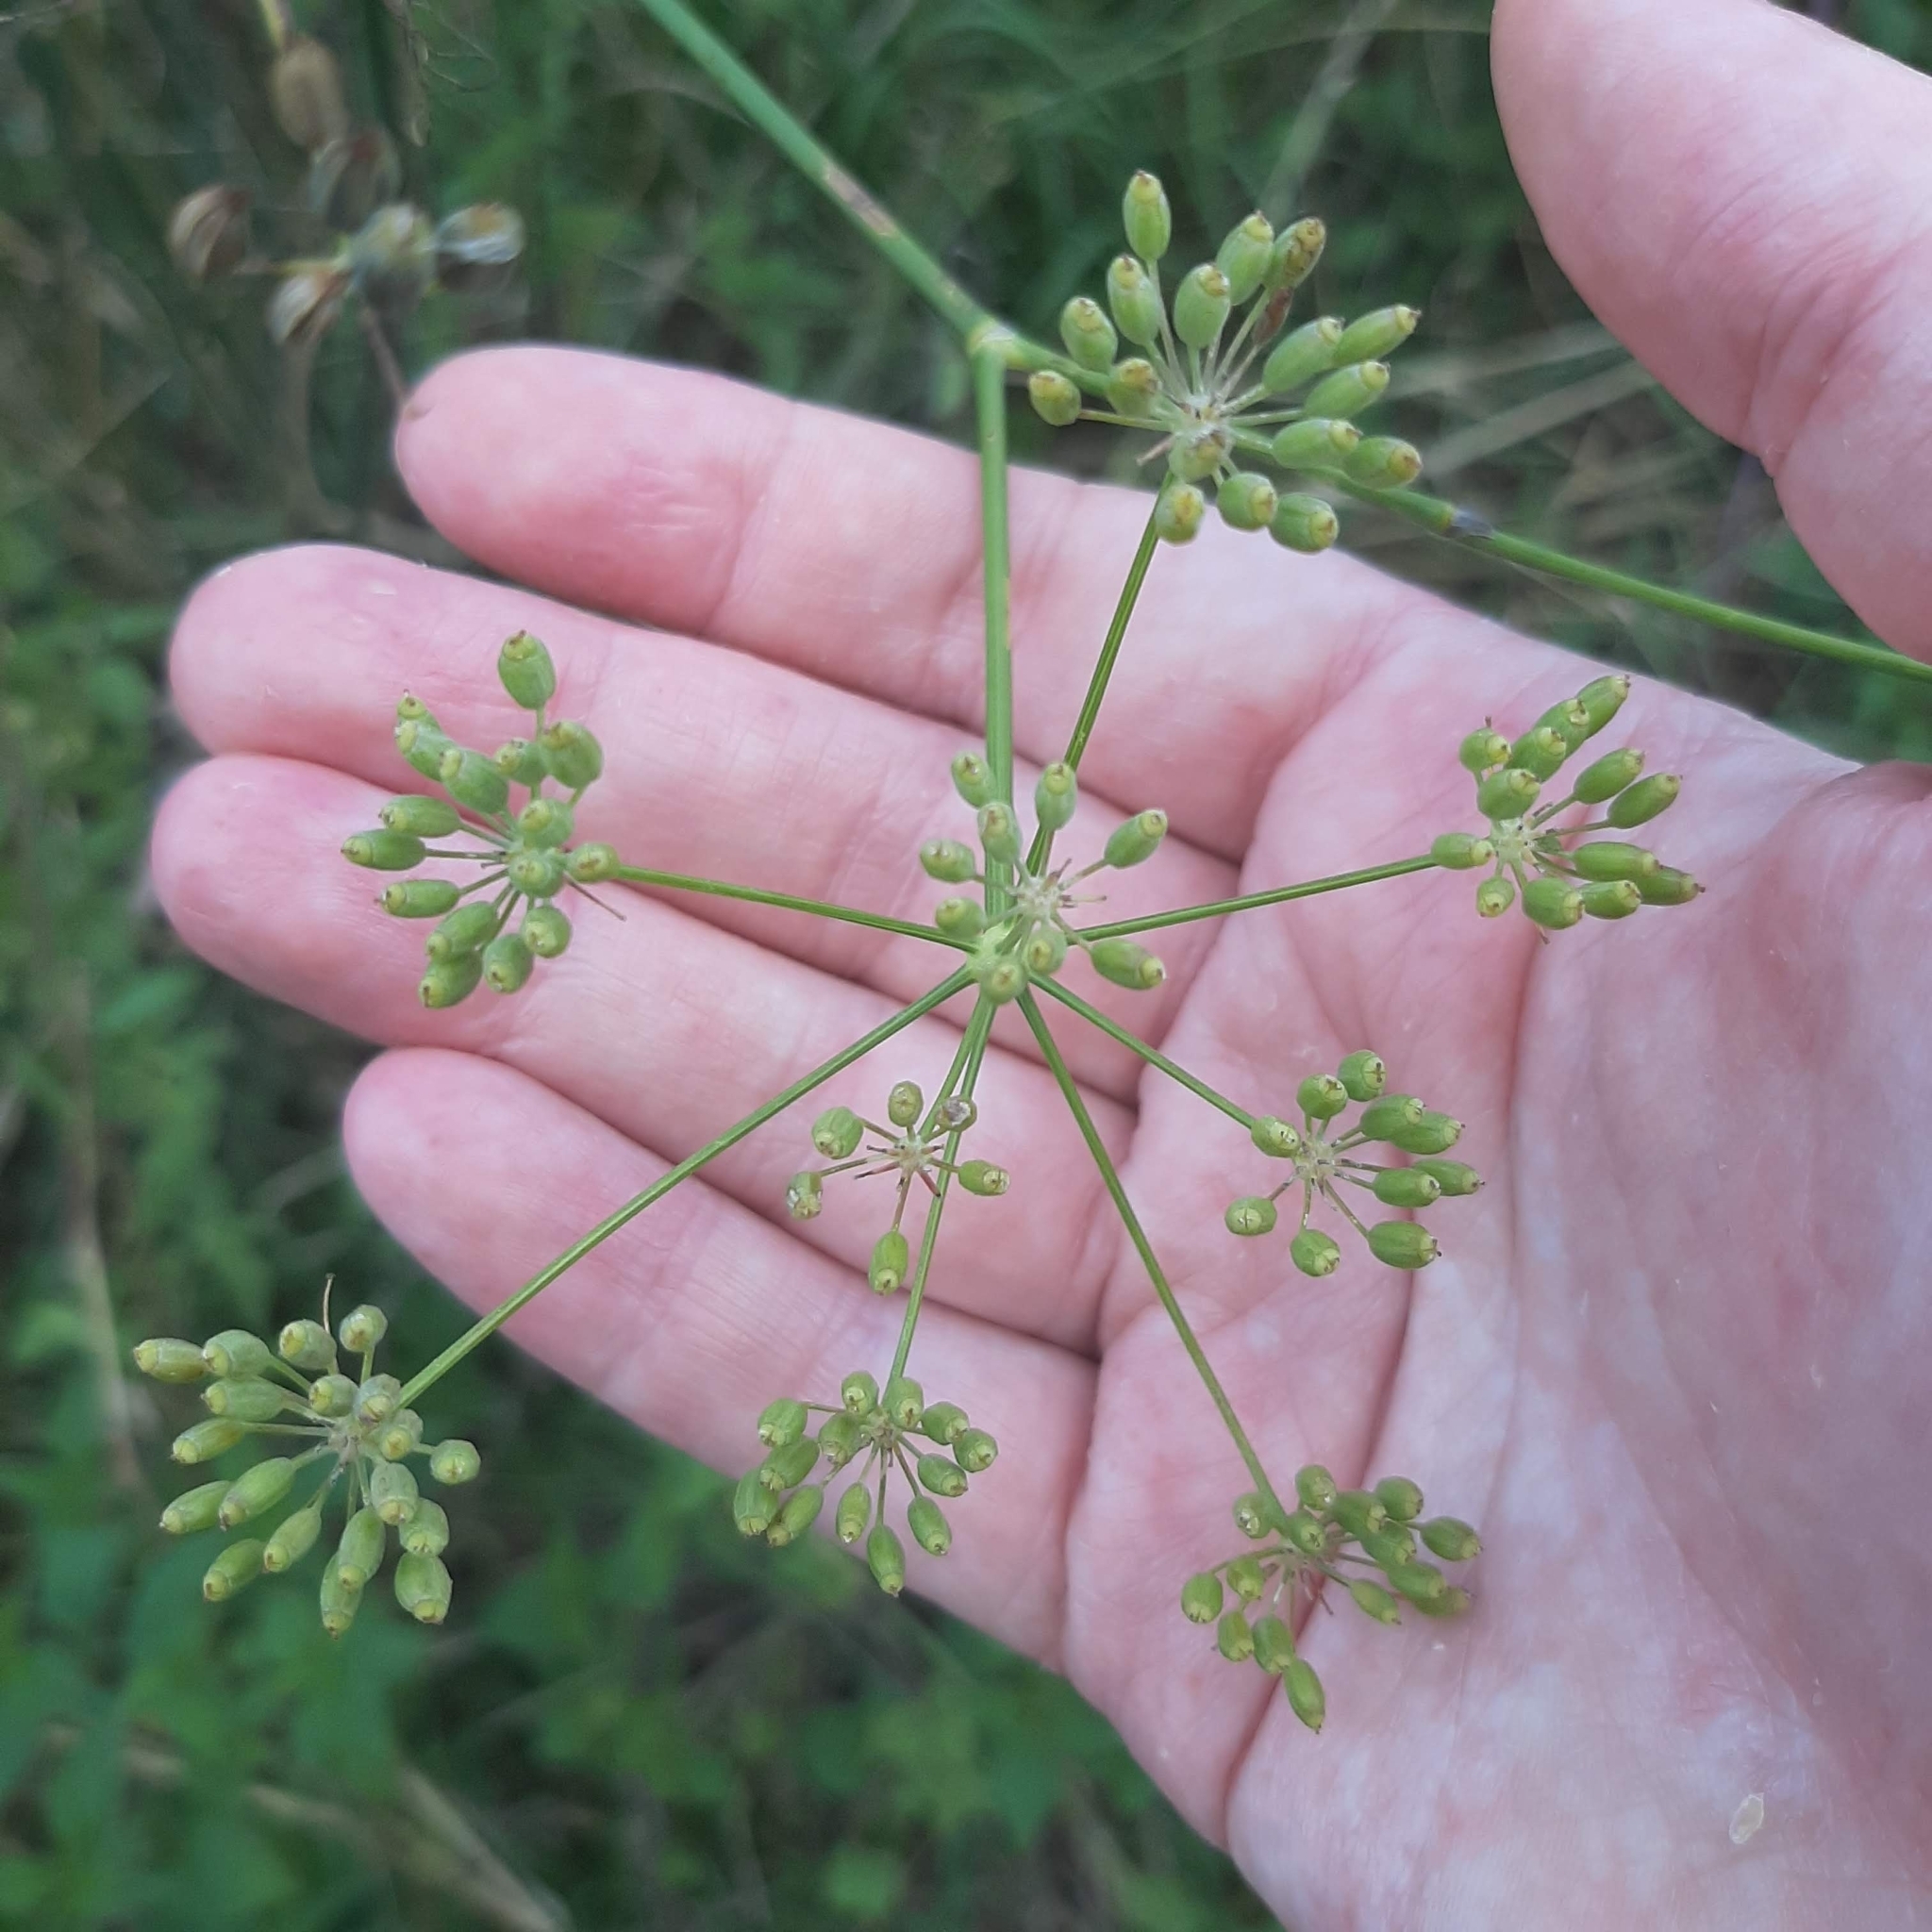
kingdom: Plantae
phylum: Tracheophyta
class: Magnoliopsida
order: Apiales
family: Apiaceae
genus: Foeniculum
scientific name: Foeniculum vulgare
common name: Fennel
